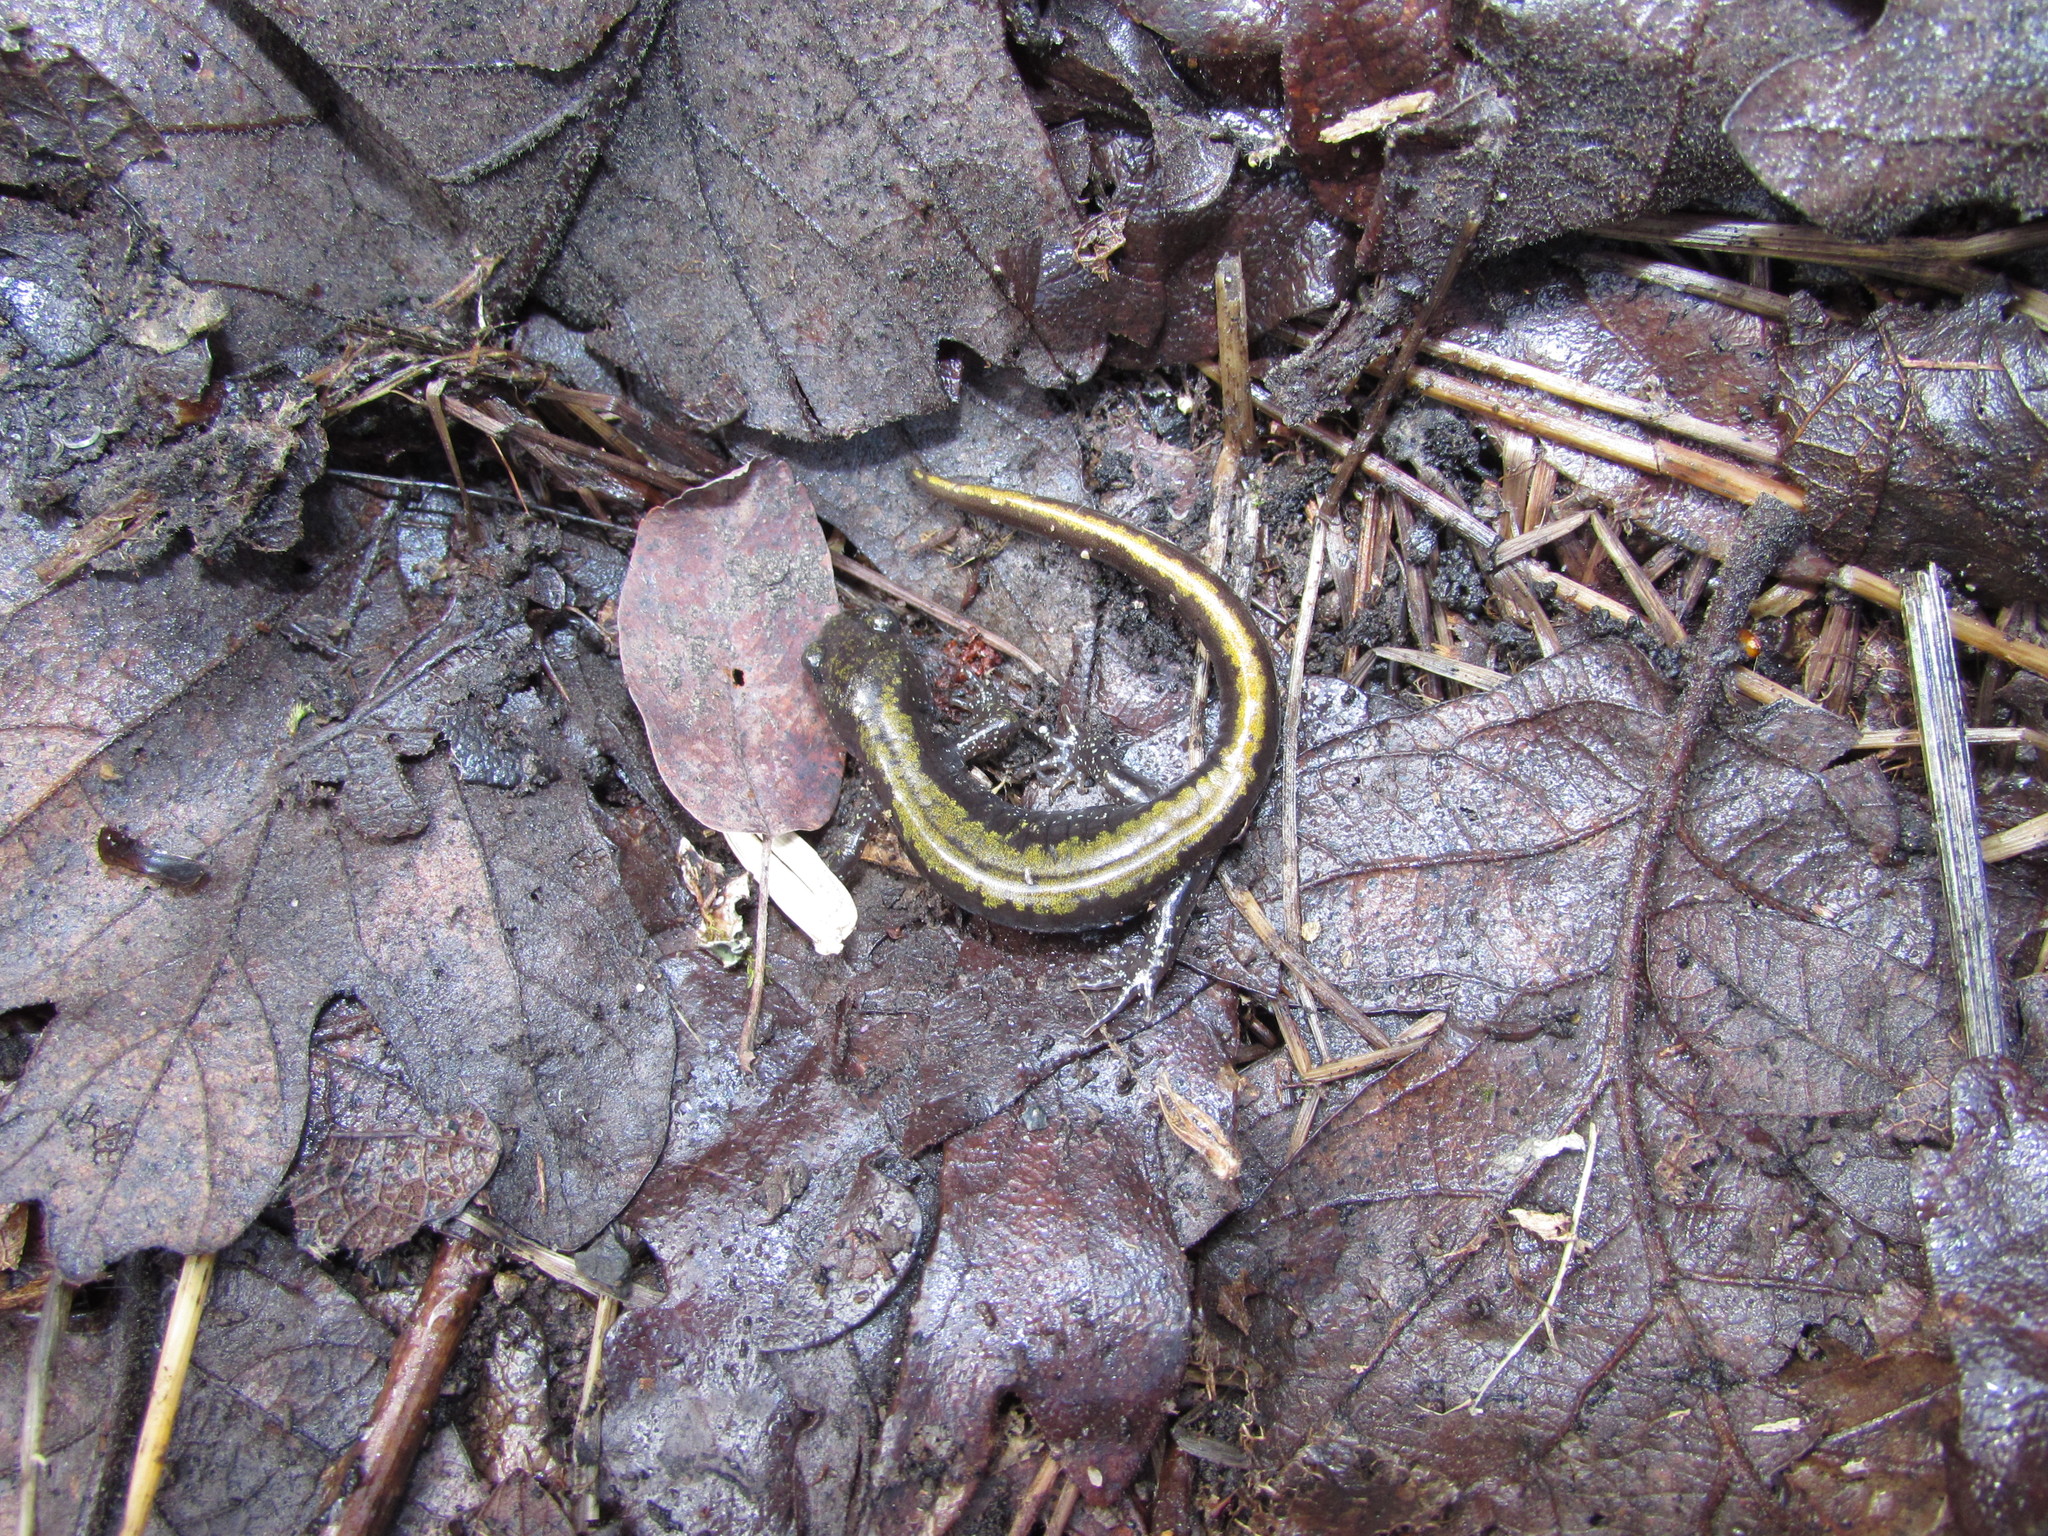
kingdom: Animalia
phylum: Chordata
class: Amphibia
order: Caudata
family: Ambystomatidae
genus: Ambystoma
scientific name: Ambystoma macrodactylum
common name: Long-toed salamander
